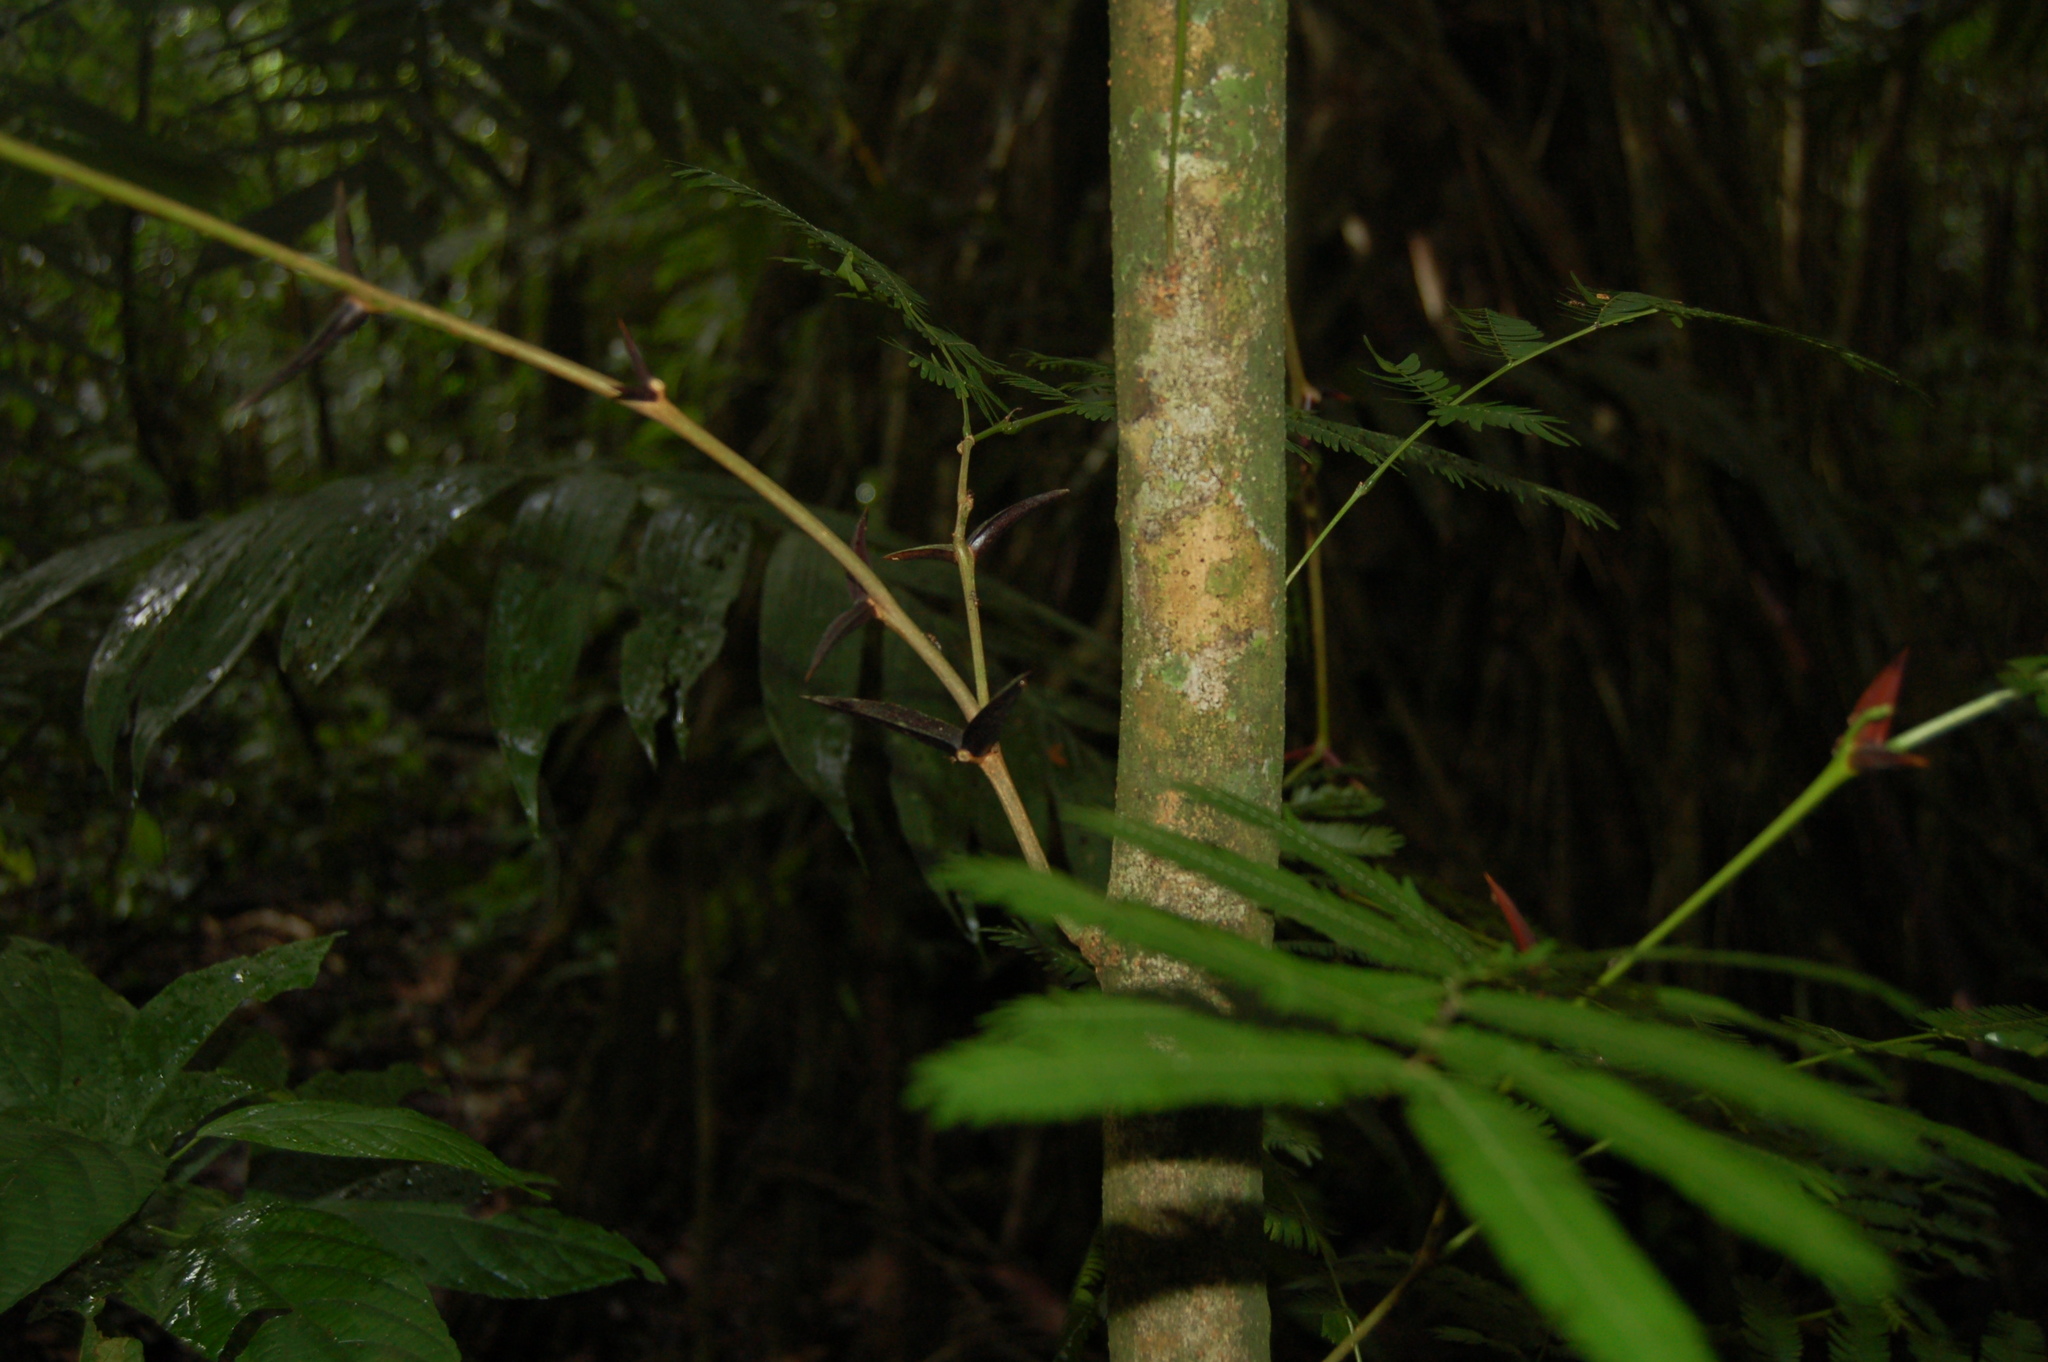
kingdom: Plantae
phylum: Tracheophyta
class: Magnoliopsida
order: Fabales
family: Fabaceae
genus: Vachellia
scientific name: Vachellia cornigera
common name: Bullhorn wattle
